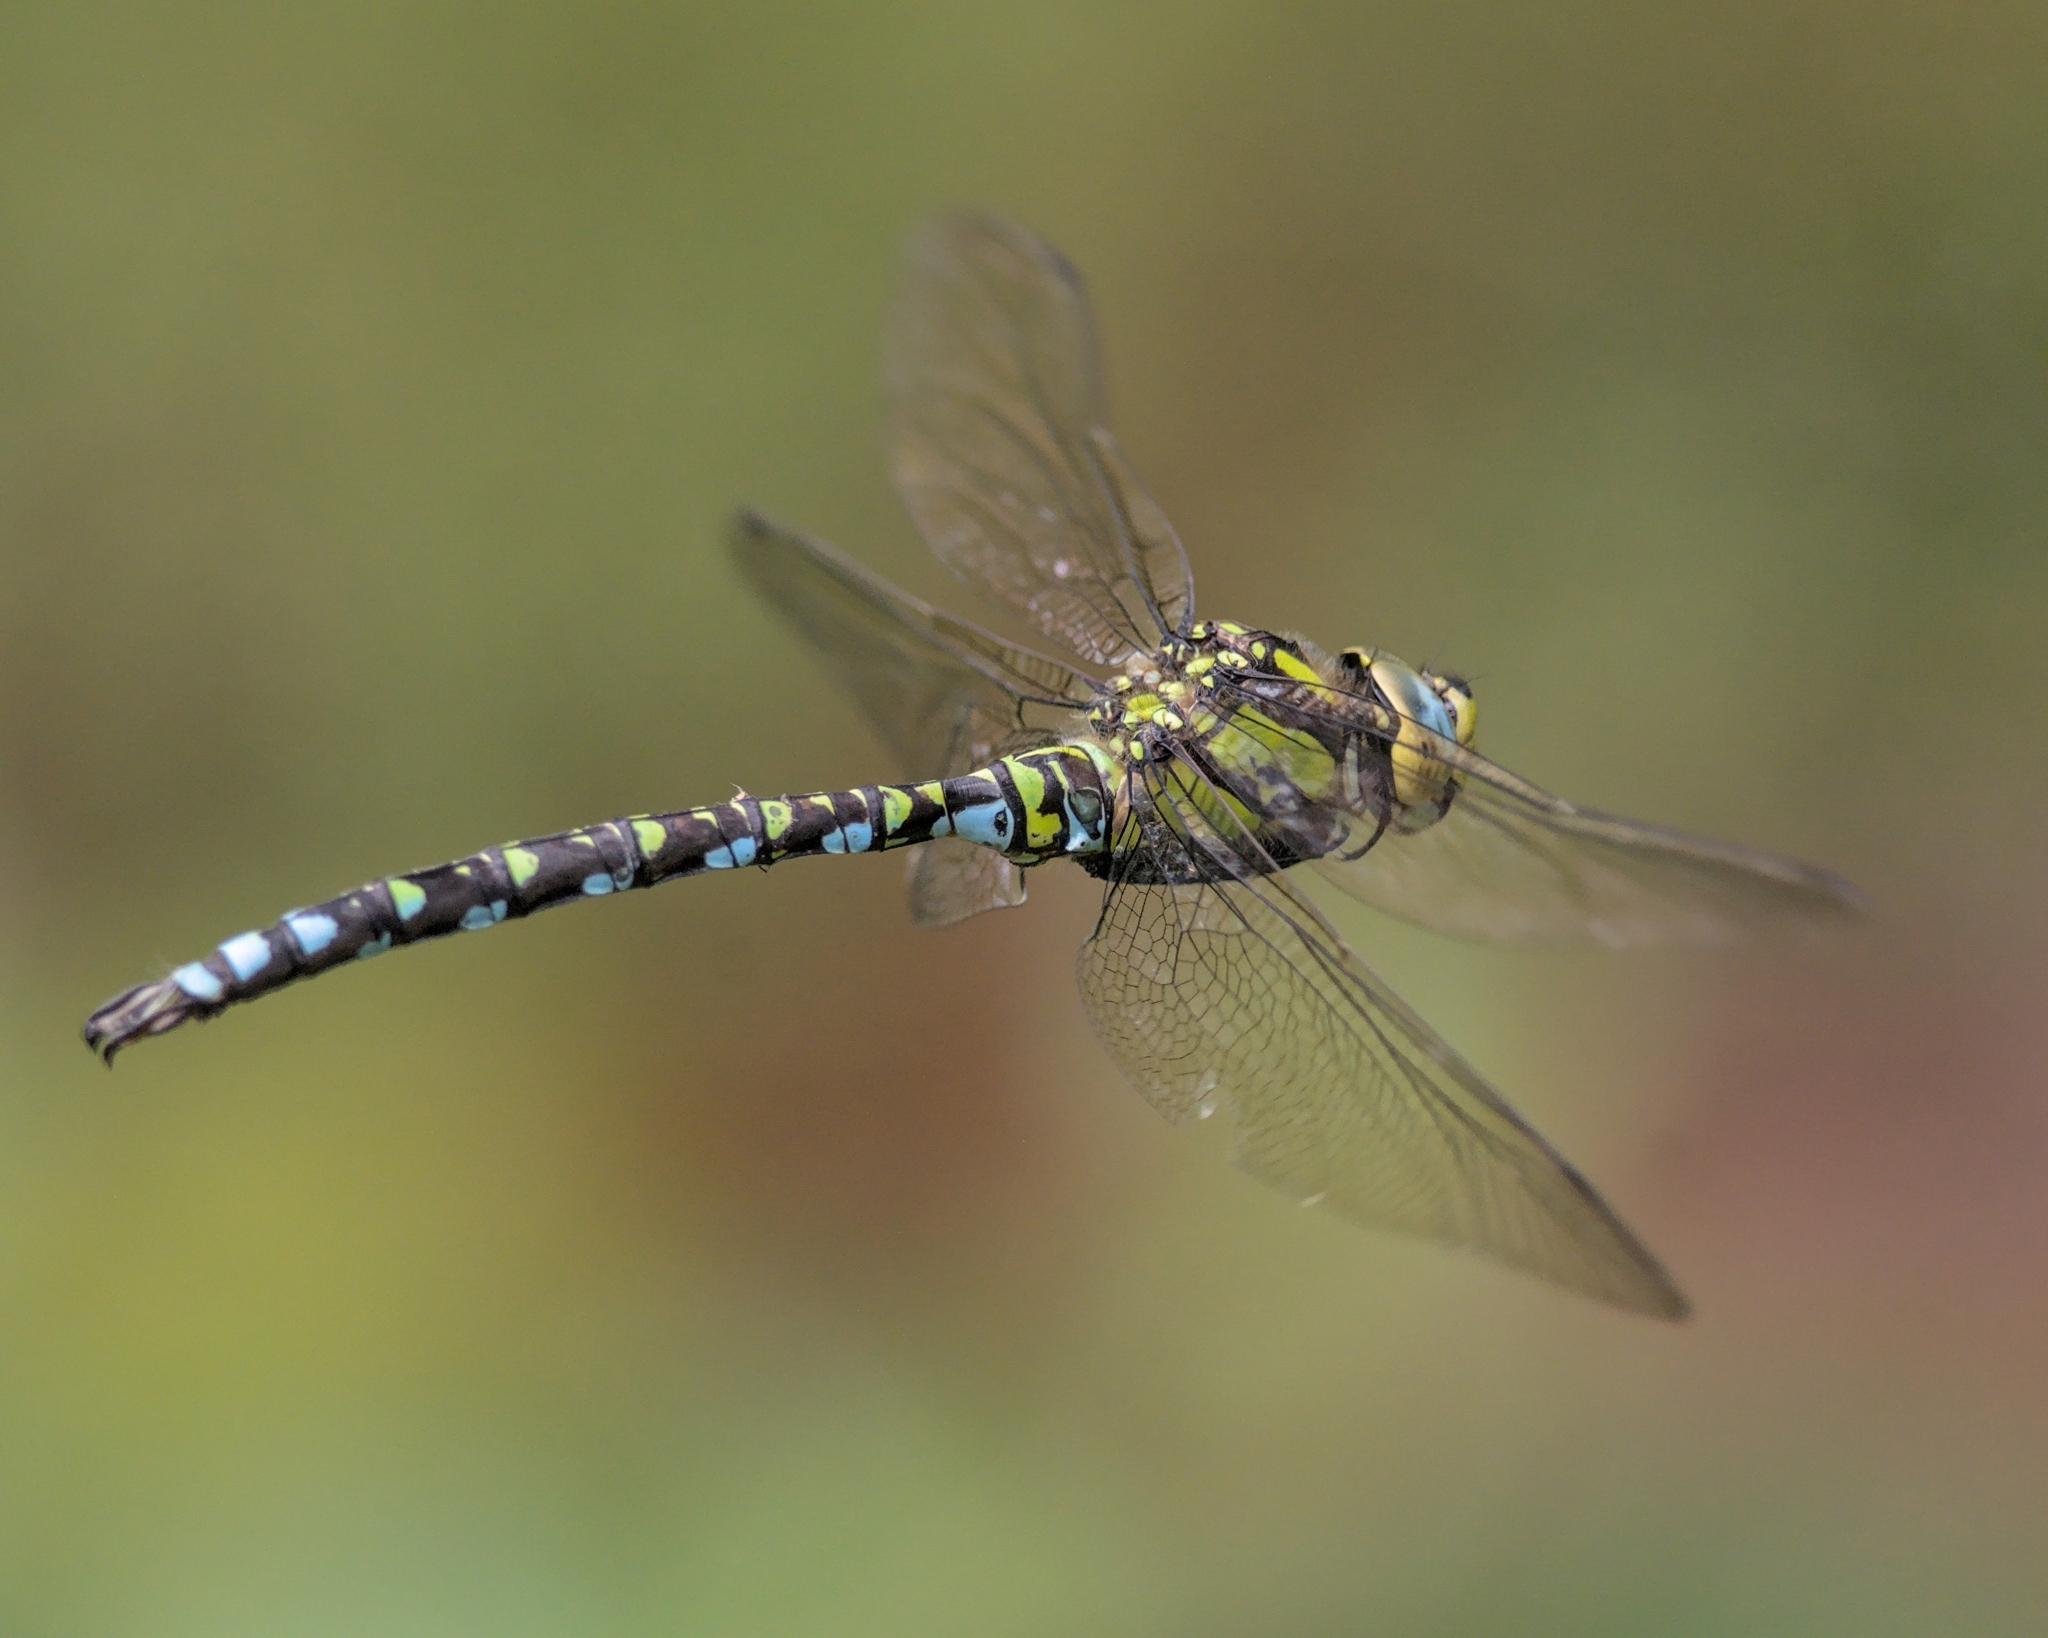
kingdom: Animalia
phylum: Arthropoda
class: Insecta
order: Odonata
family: Aeshnidae
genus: Aeshna
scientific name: Aeshna cyanea
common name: Southern hawker
